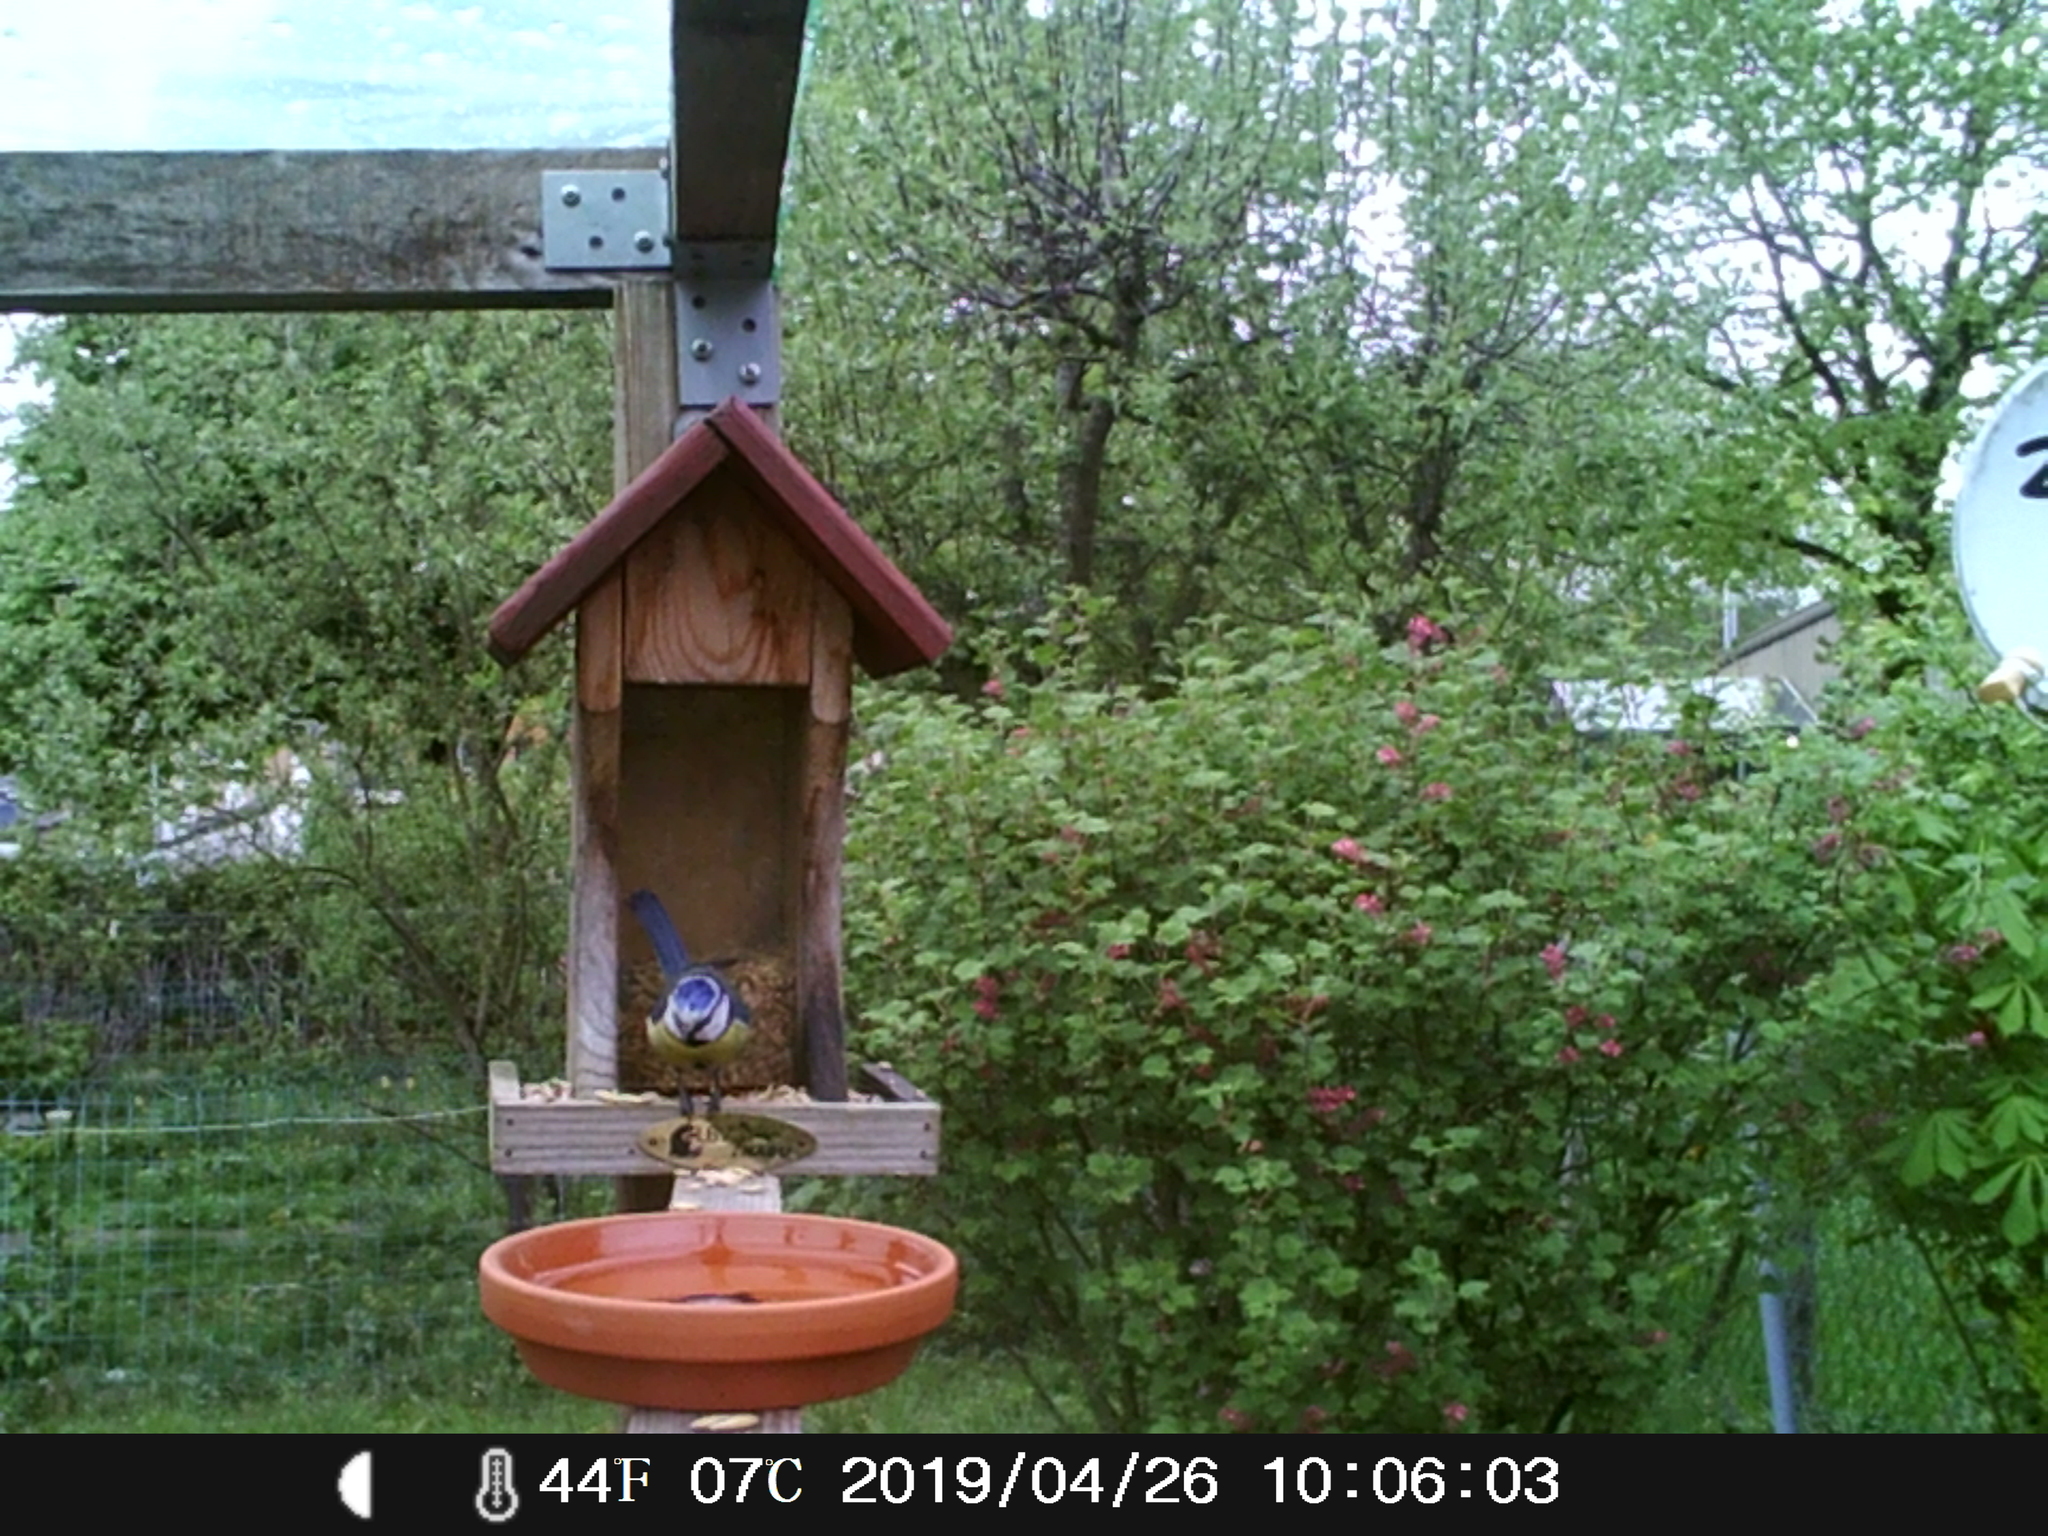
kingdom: Animalia
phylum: Chordata
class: Aves
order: Passeriformes
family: Paridae
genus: Cyanistes
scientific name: Cyanistes caeruleus
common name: Eurasian blue tit
